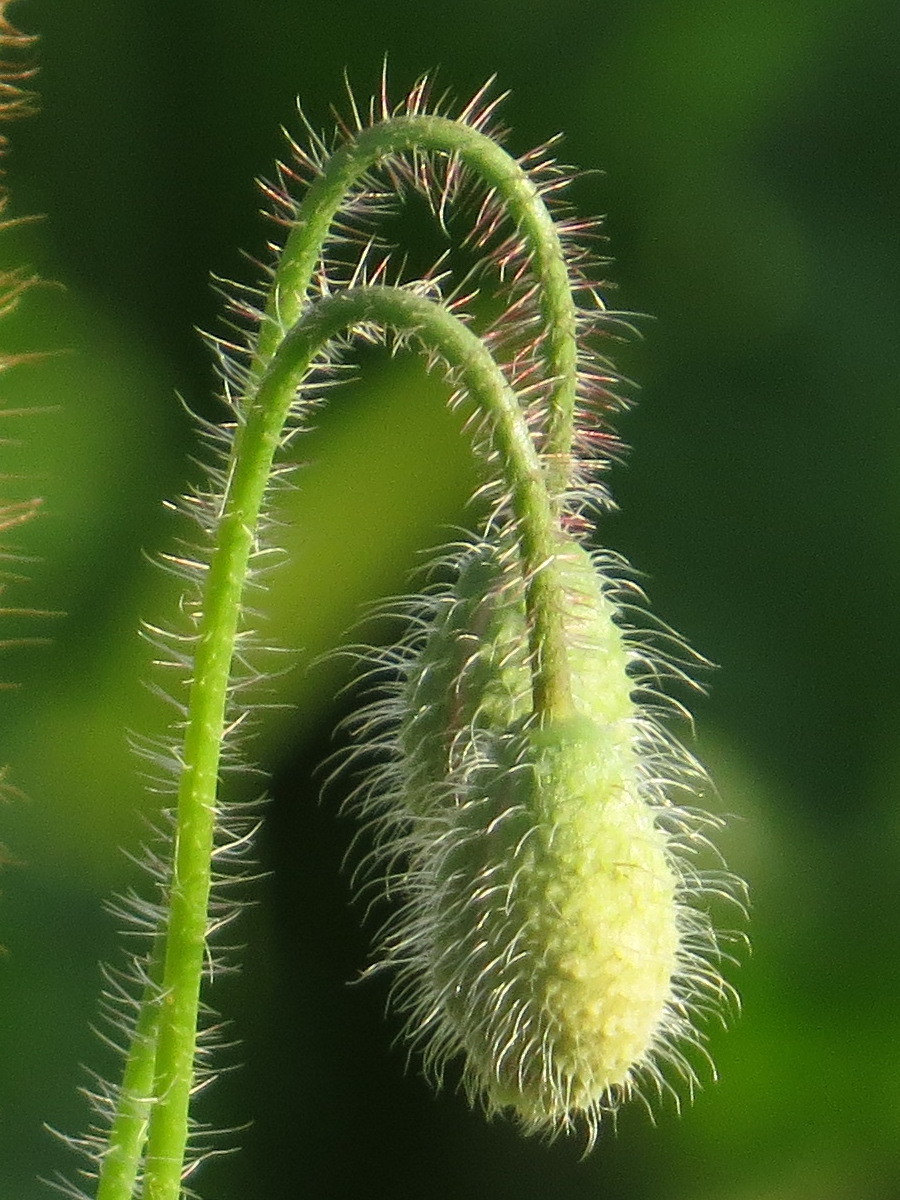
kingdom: Plantae
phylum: Tracheophyta
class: Magnoliopsida
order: Ranunculales
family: Papaveraceae
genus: Papaver
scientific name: Papaver rhoeas
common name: Corn poppy
